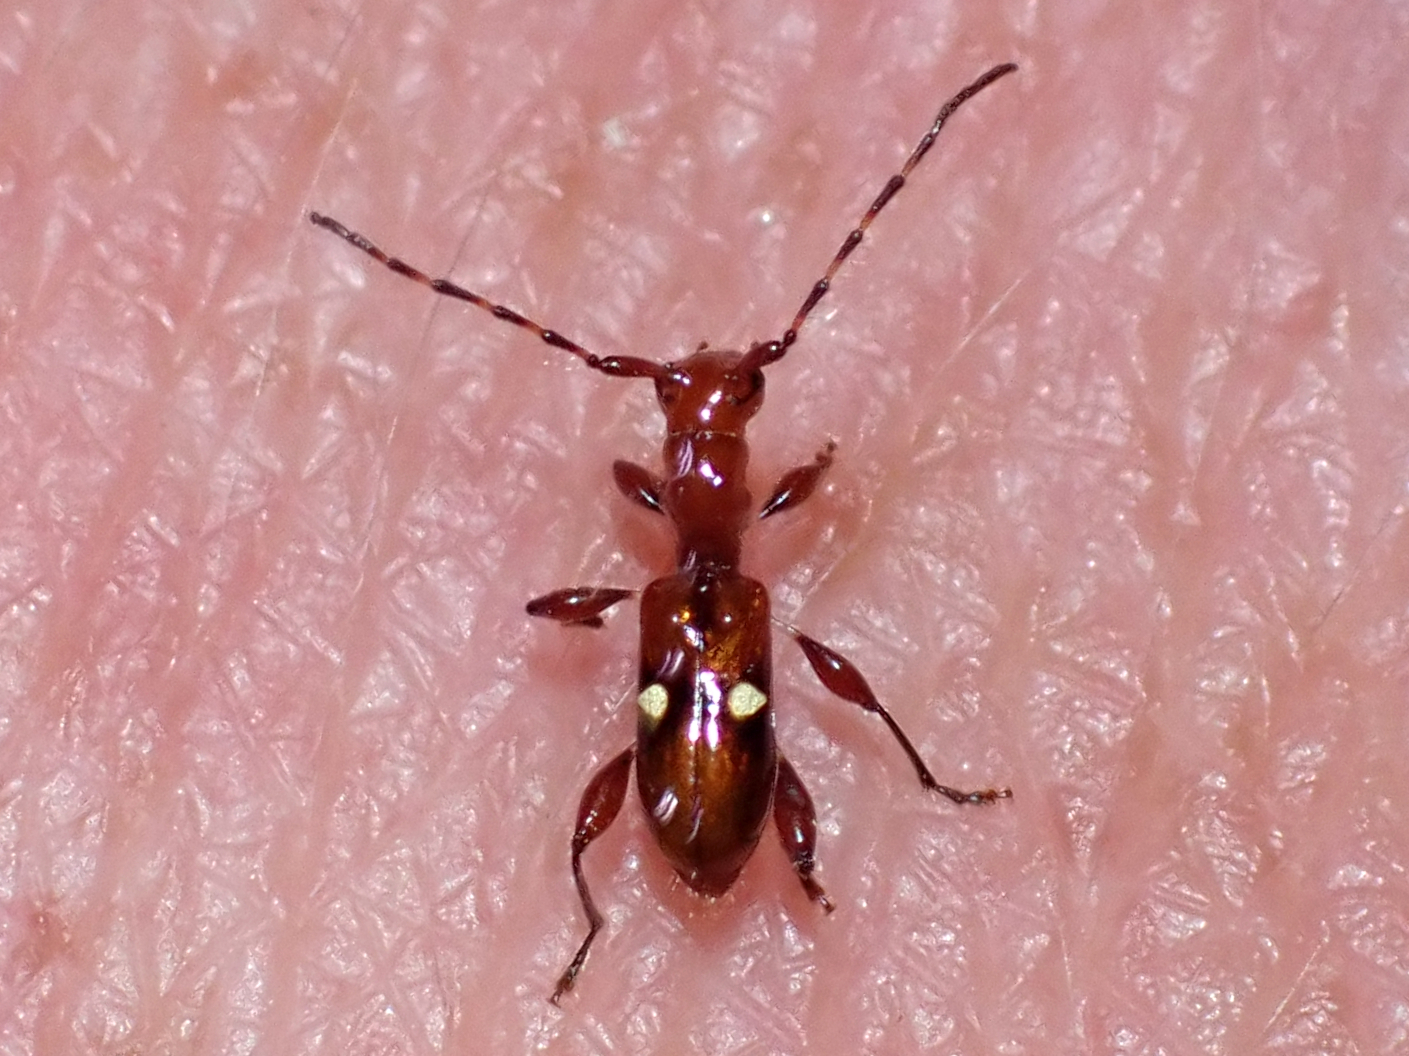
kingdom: Animalia
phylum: Arthropoda
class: Insecta
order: Coleoptera
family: Cerambycidae
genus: Zorion
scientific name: Zorion batesi
